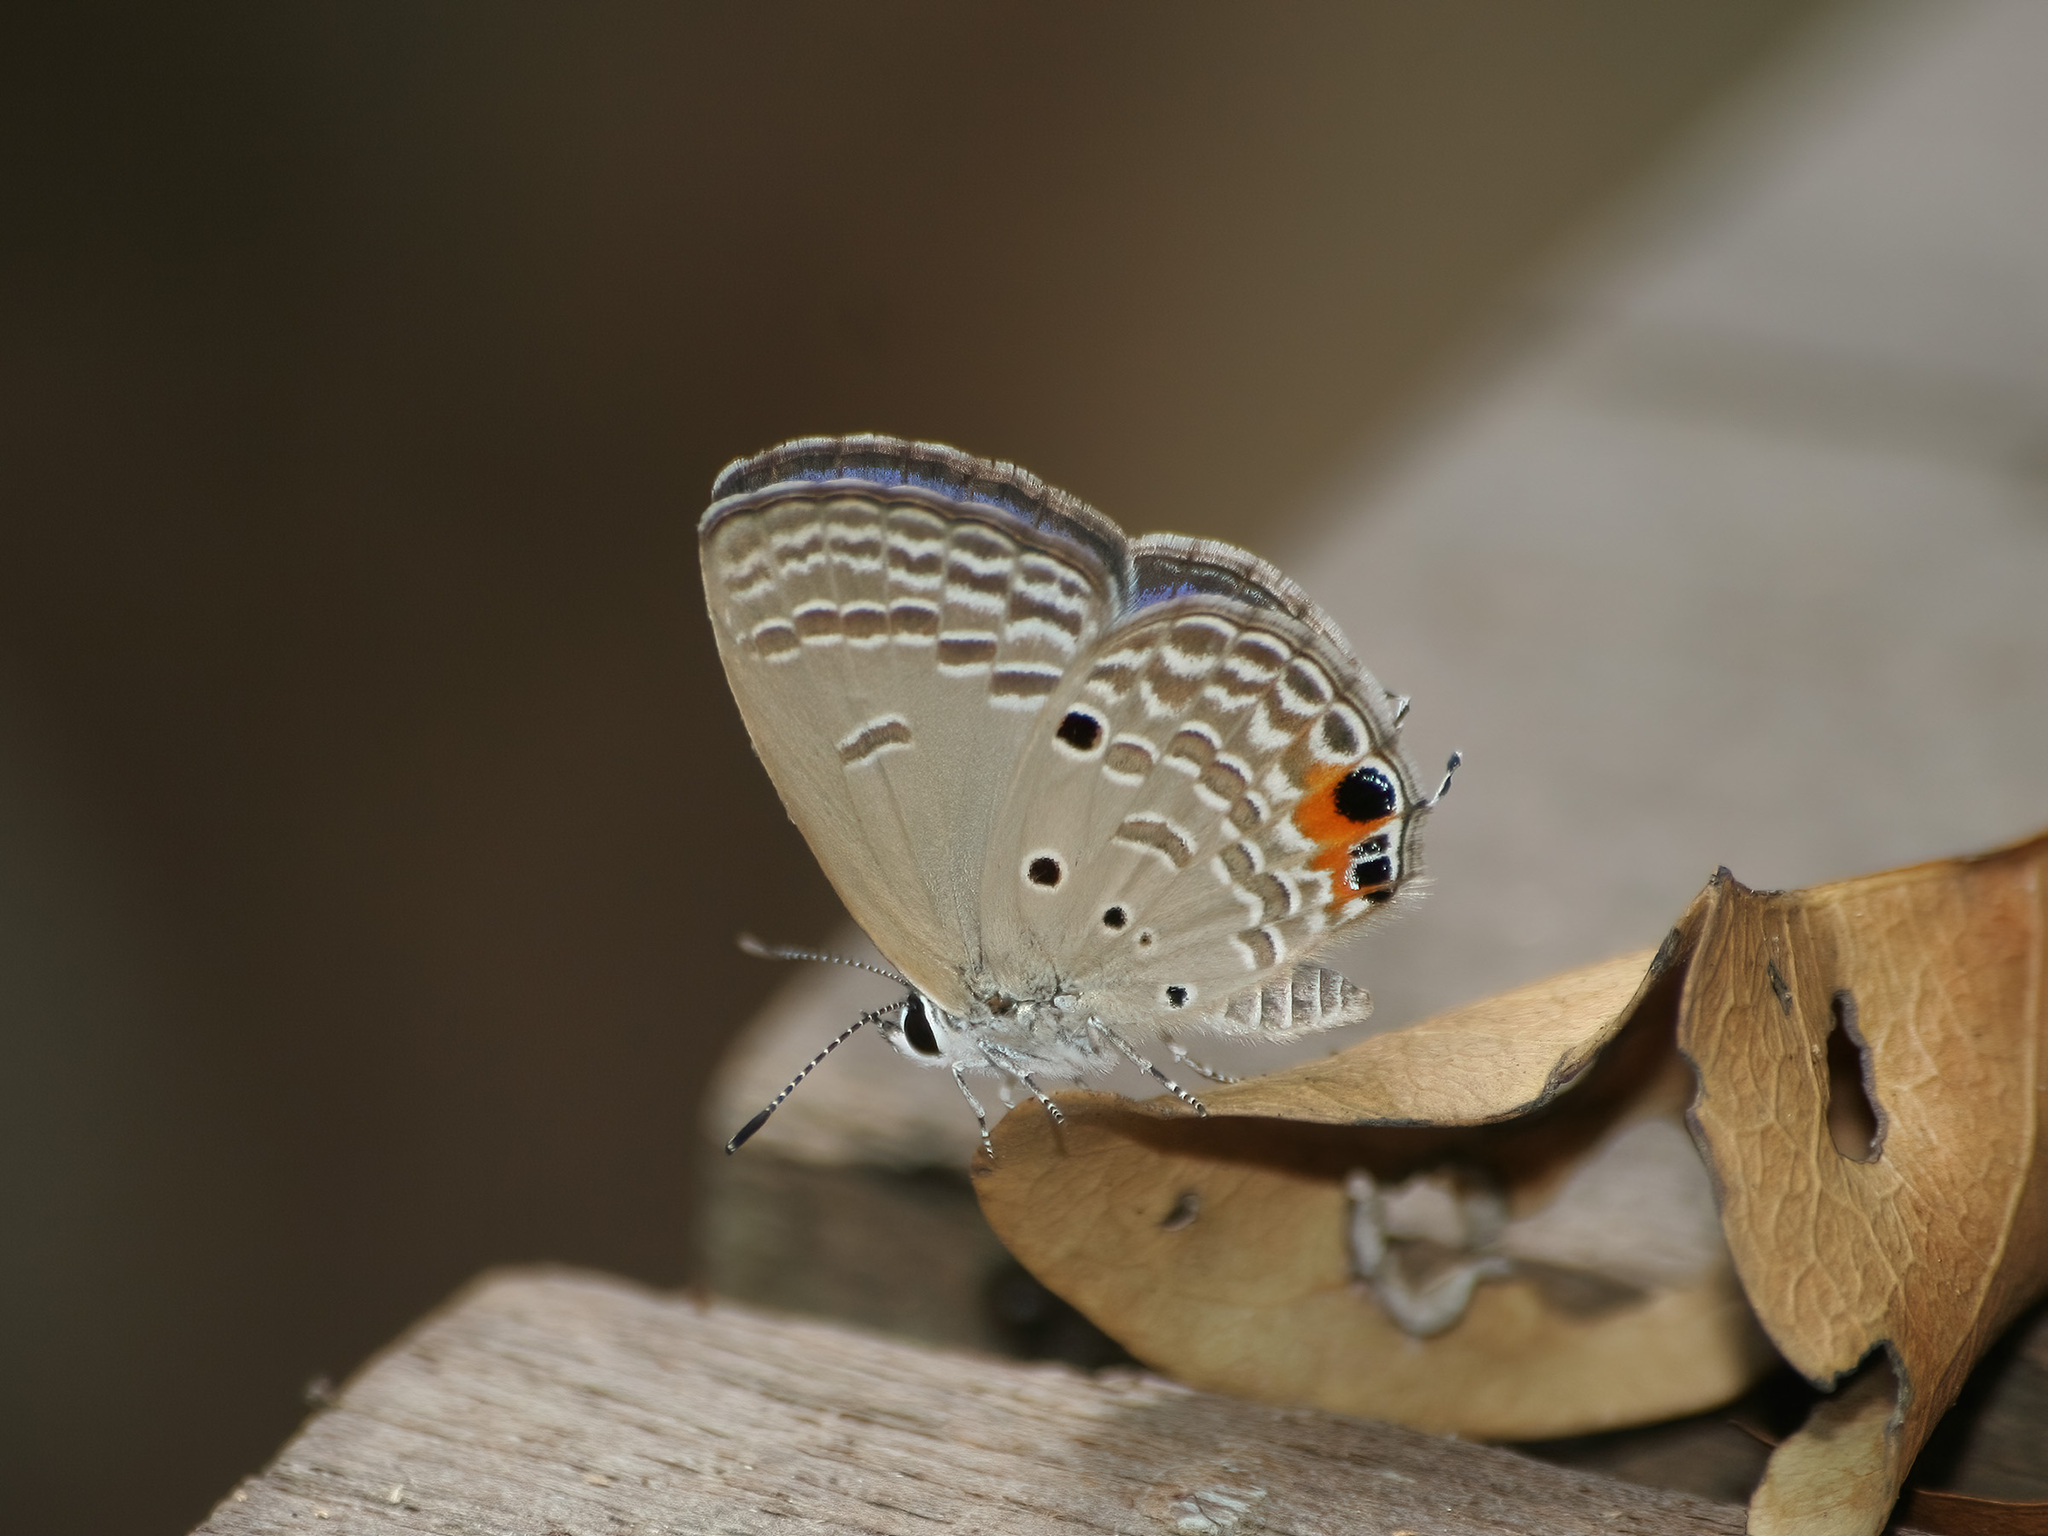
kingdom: Animalia
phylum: Arthropoda
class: Insecta
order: Lepidoptera
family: Lycaenidae
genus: Luthrodes
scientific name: Luthrodes pandava
